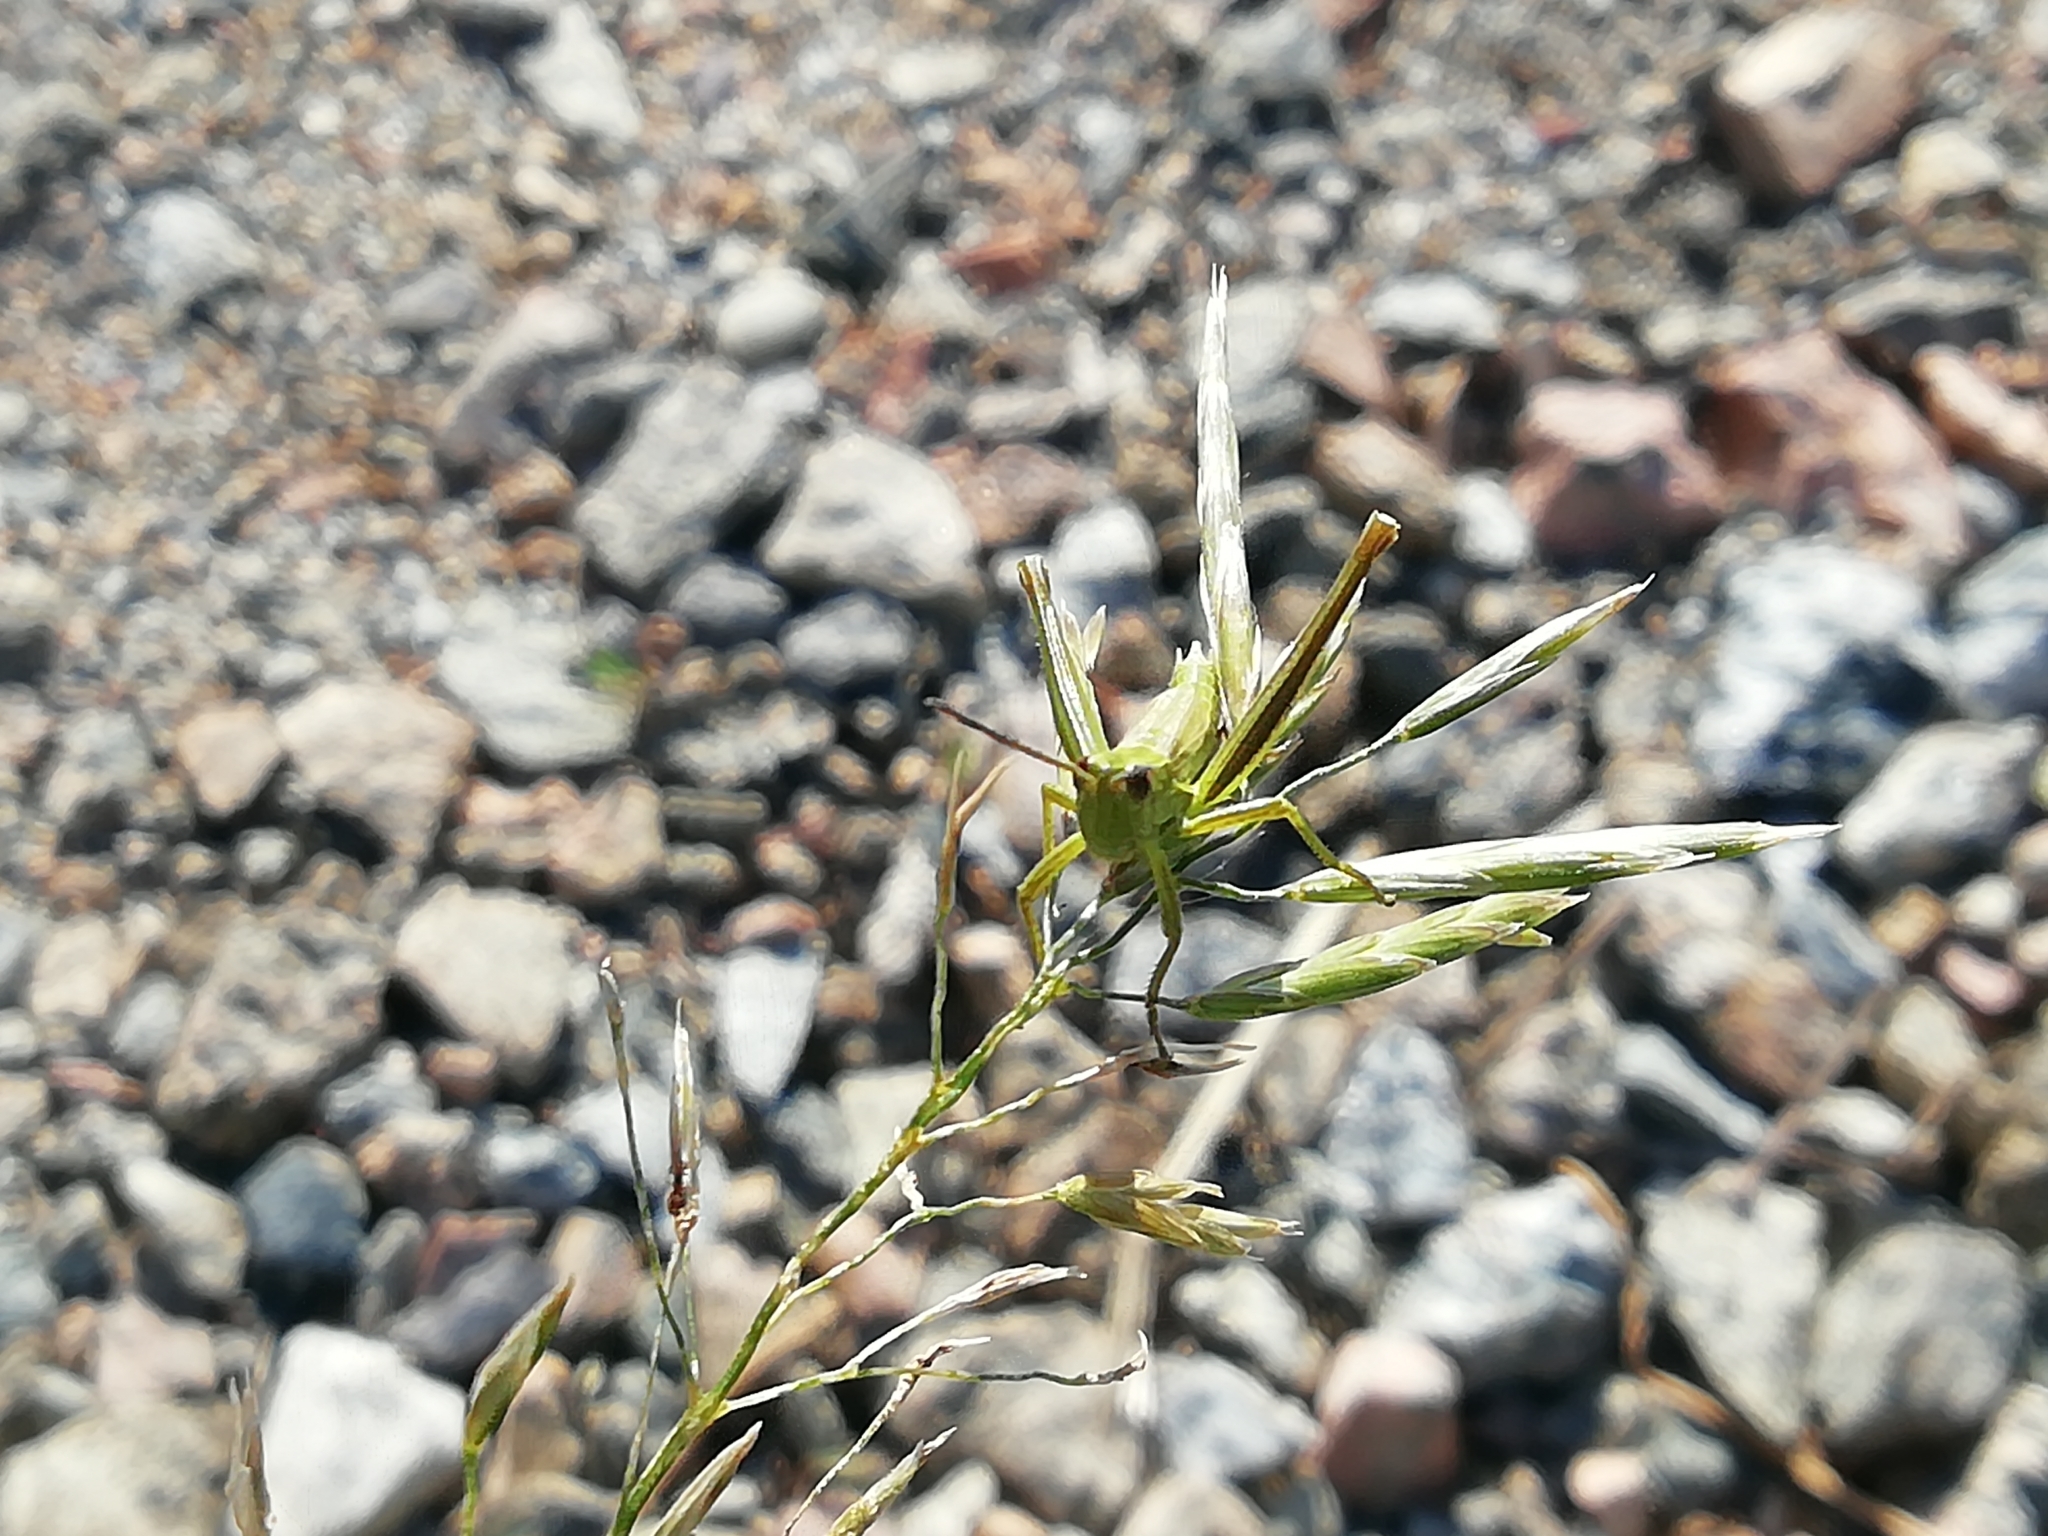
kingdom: Animalia
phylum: Arthropoda
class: Insecta
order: Orthoptera
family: Acrididae
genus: Euthystira
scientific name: Euthystira brachyptera
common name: Small gold grasshopper
